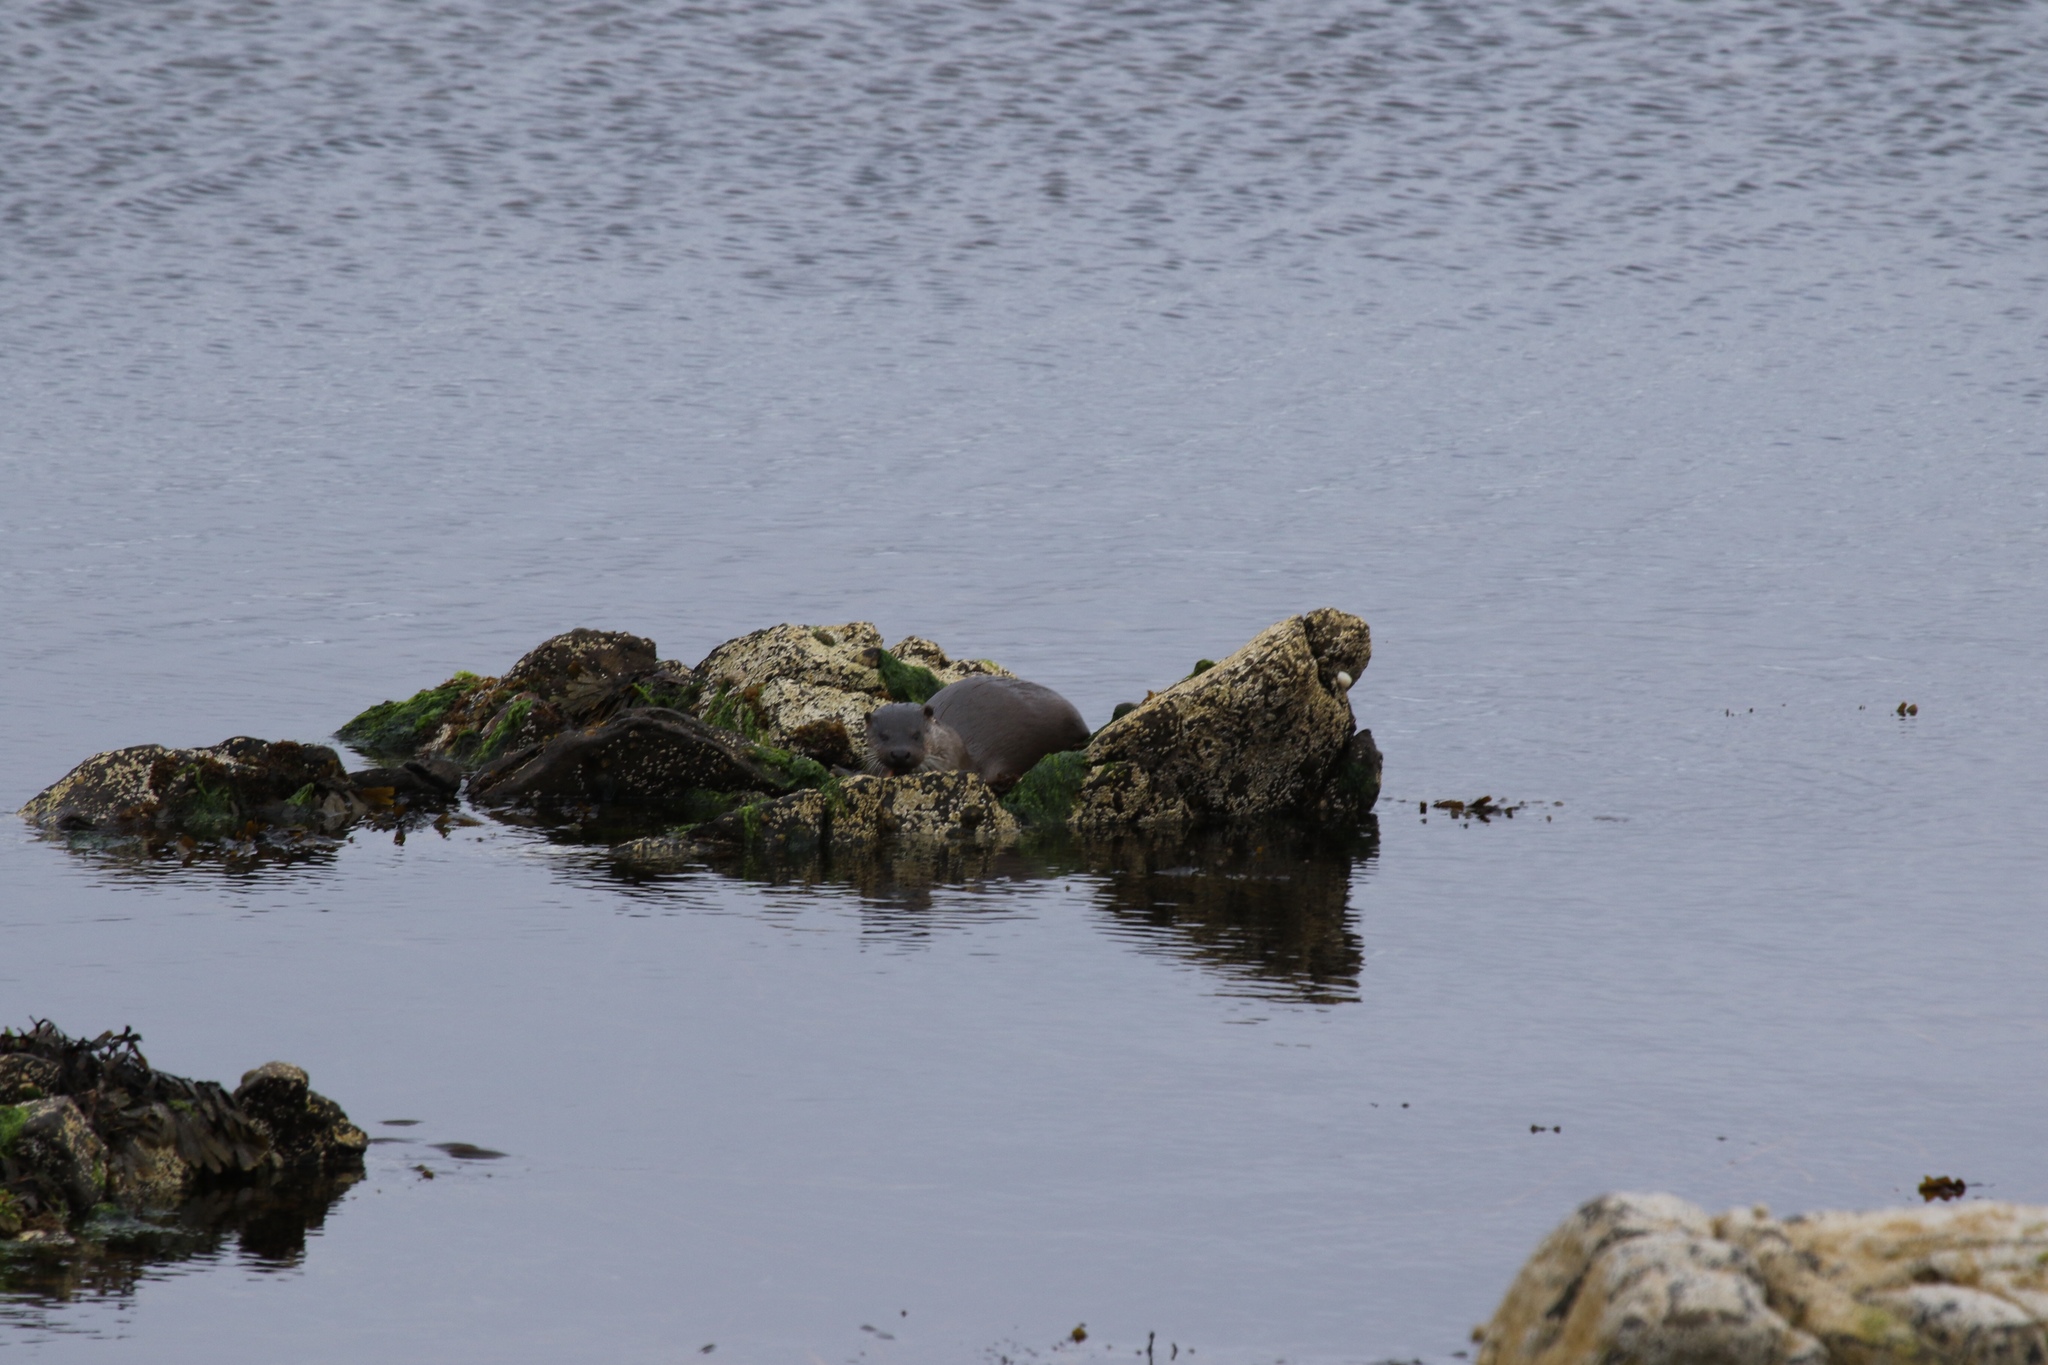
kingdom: Animalia
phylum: Chordata
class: Mammalia
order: Carnivora
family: Mustelidae
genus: Lutra
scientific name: Lutra lutra
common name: European otter
